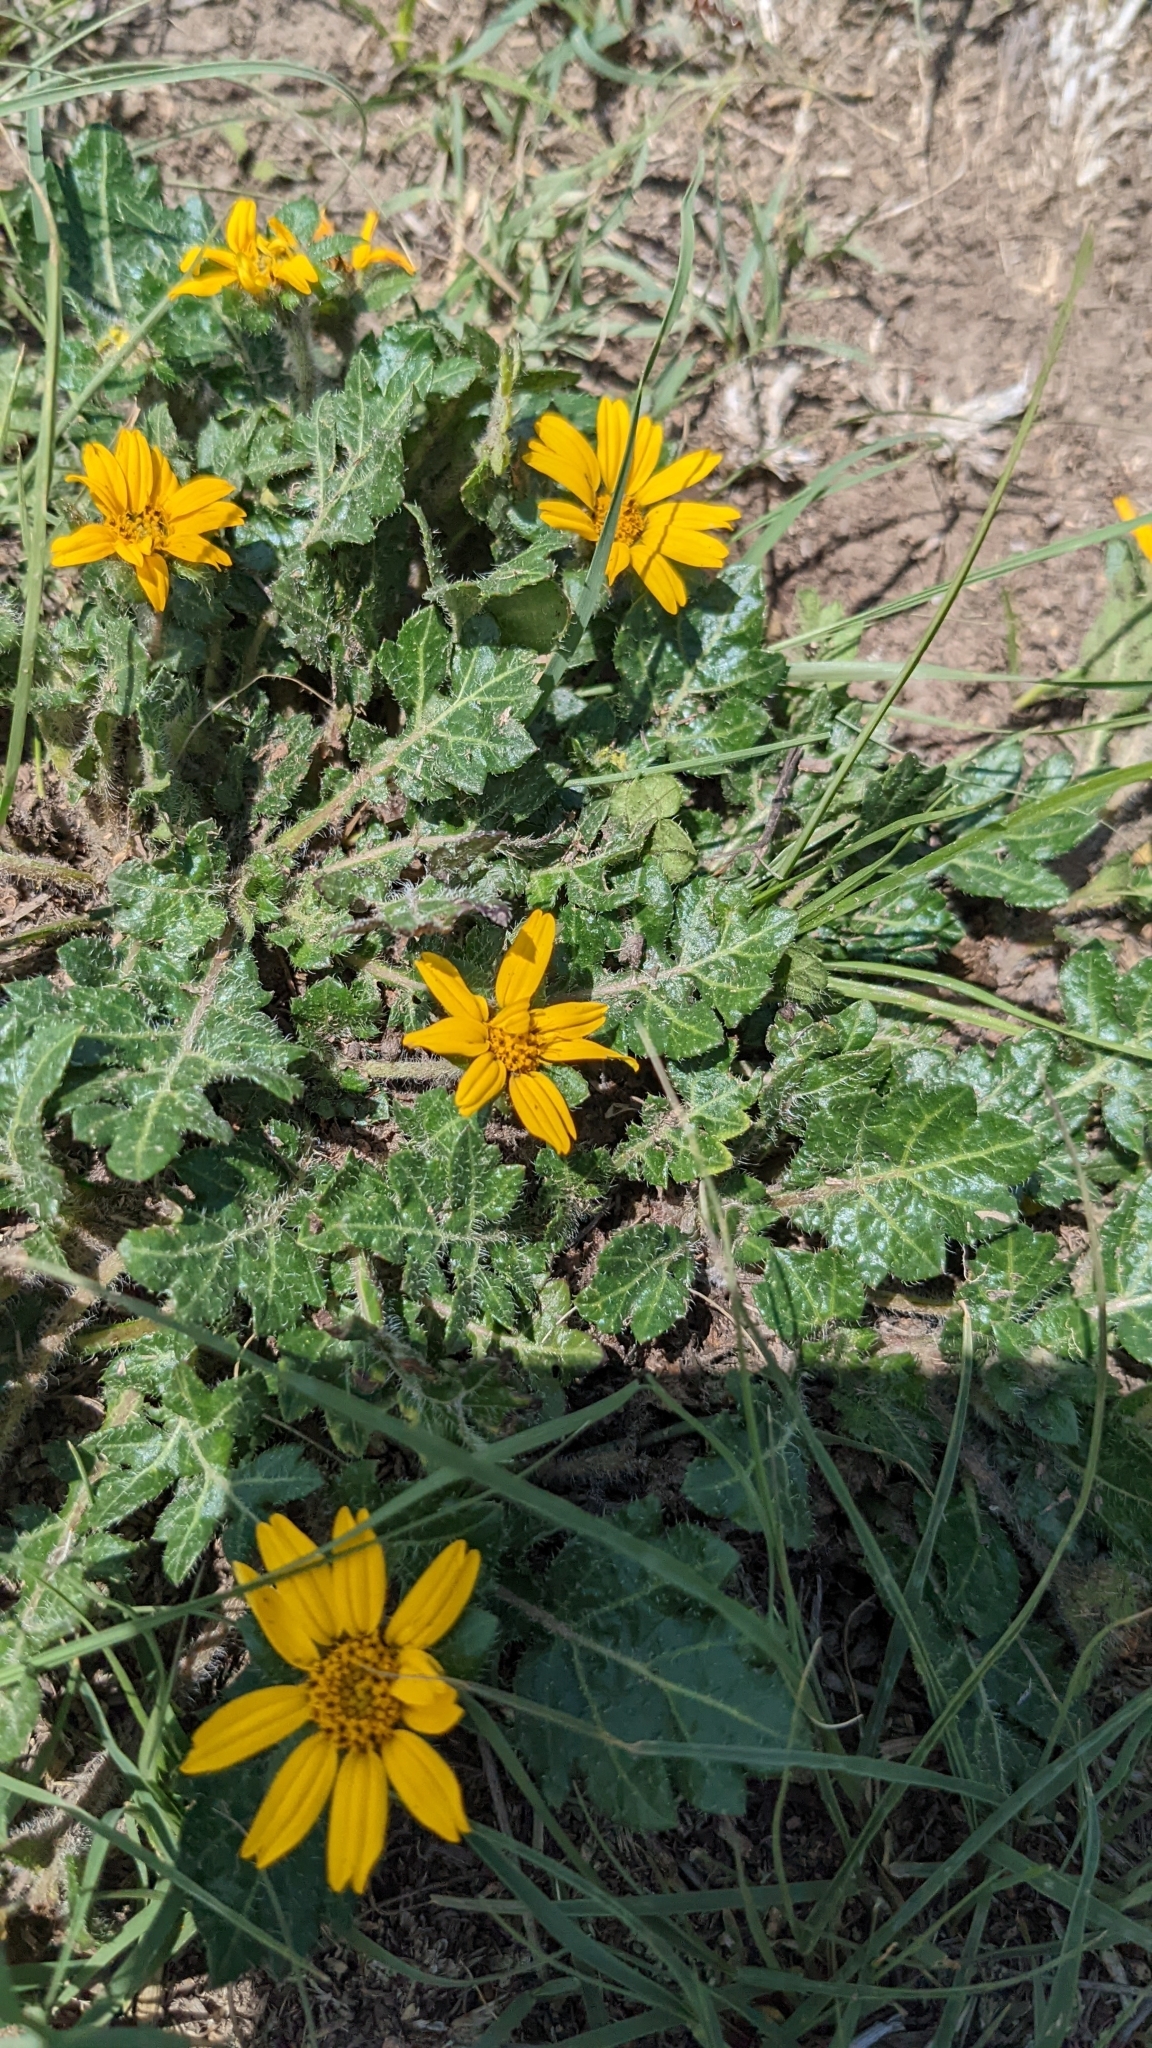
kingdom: Plantae
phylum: Tracheophyta
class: Magnoliopsida
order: Asterales
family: Asteraceae
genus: Dugesia
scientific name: Dugesia mexicana
